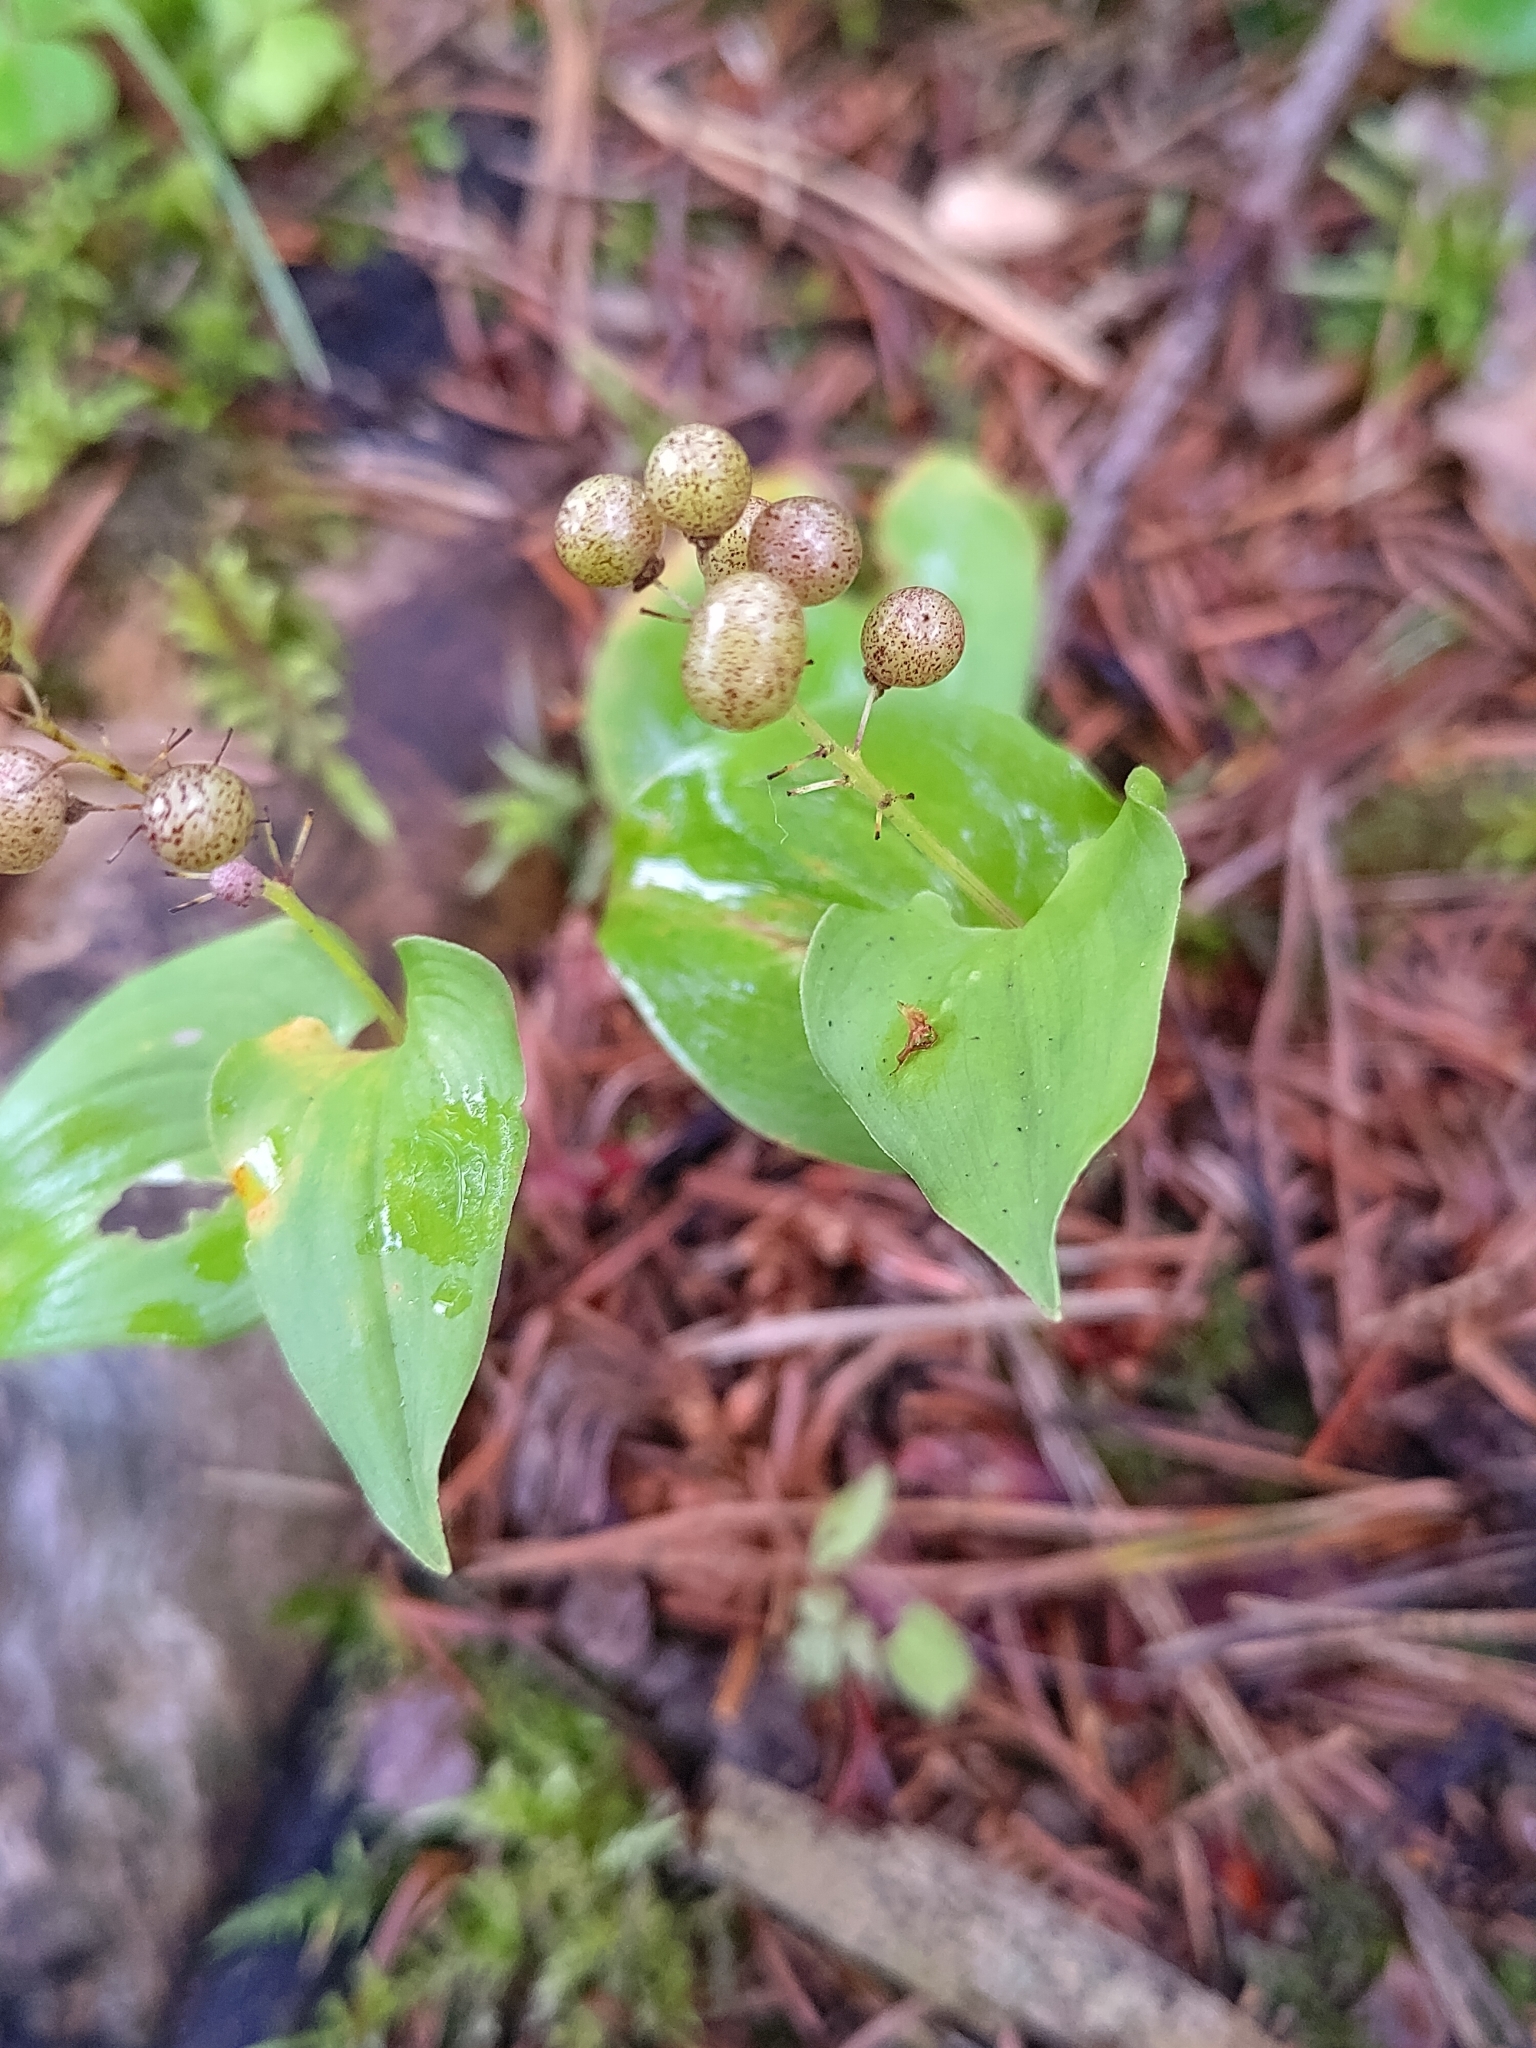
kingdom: Plantae
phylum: Tracheophyta
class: Liliopsida
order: Asparagales
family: Asparagaceae
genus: Maianthemum
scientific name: Maianthemum bifolium
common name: May lily
